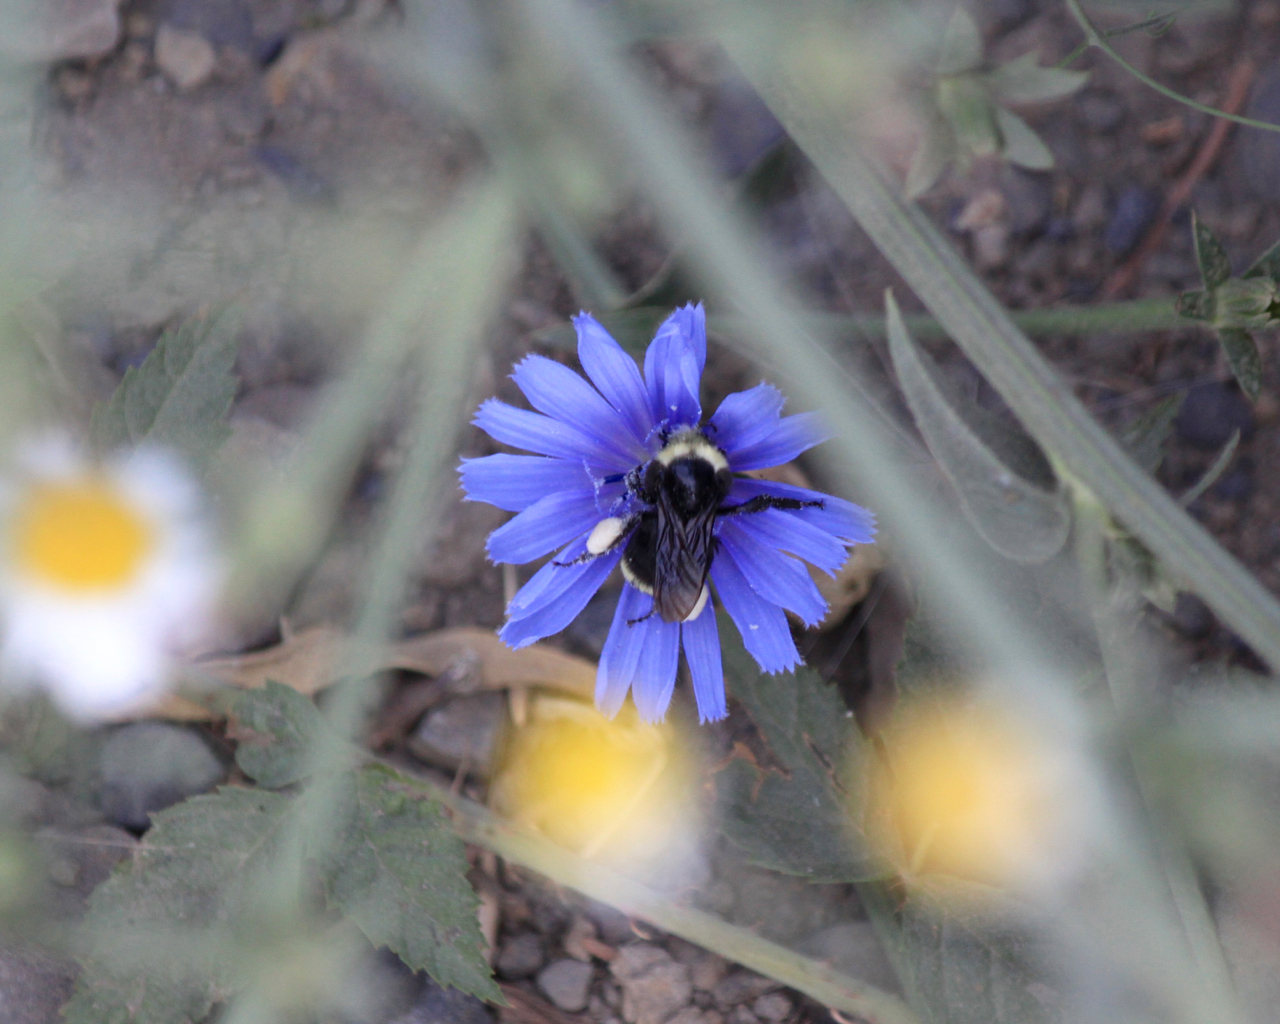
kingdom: Animalia
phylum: Arthropoda
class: Insecta
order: Hymenoptera
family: Apidae
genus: Bombus
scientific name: Bombus vosnesenskii
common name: Vosnesensky bumble bee
